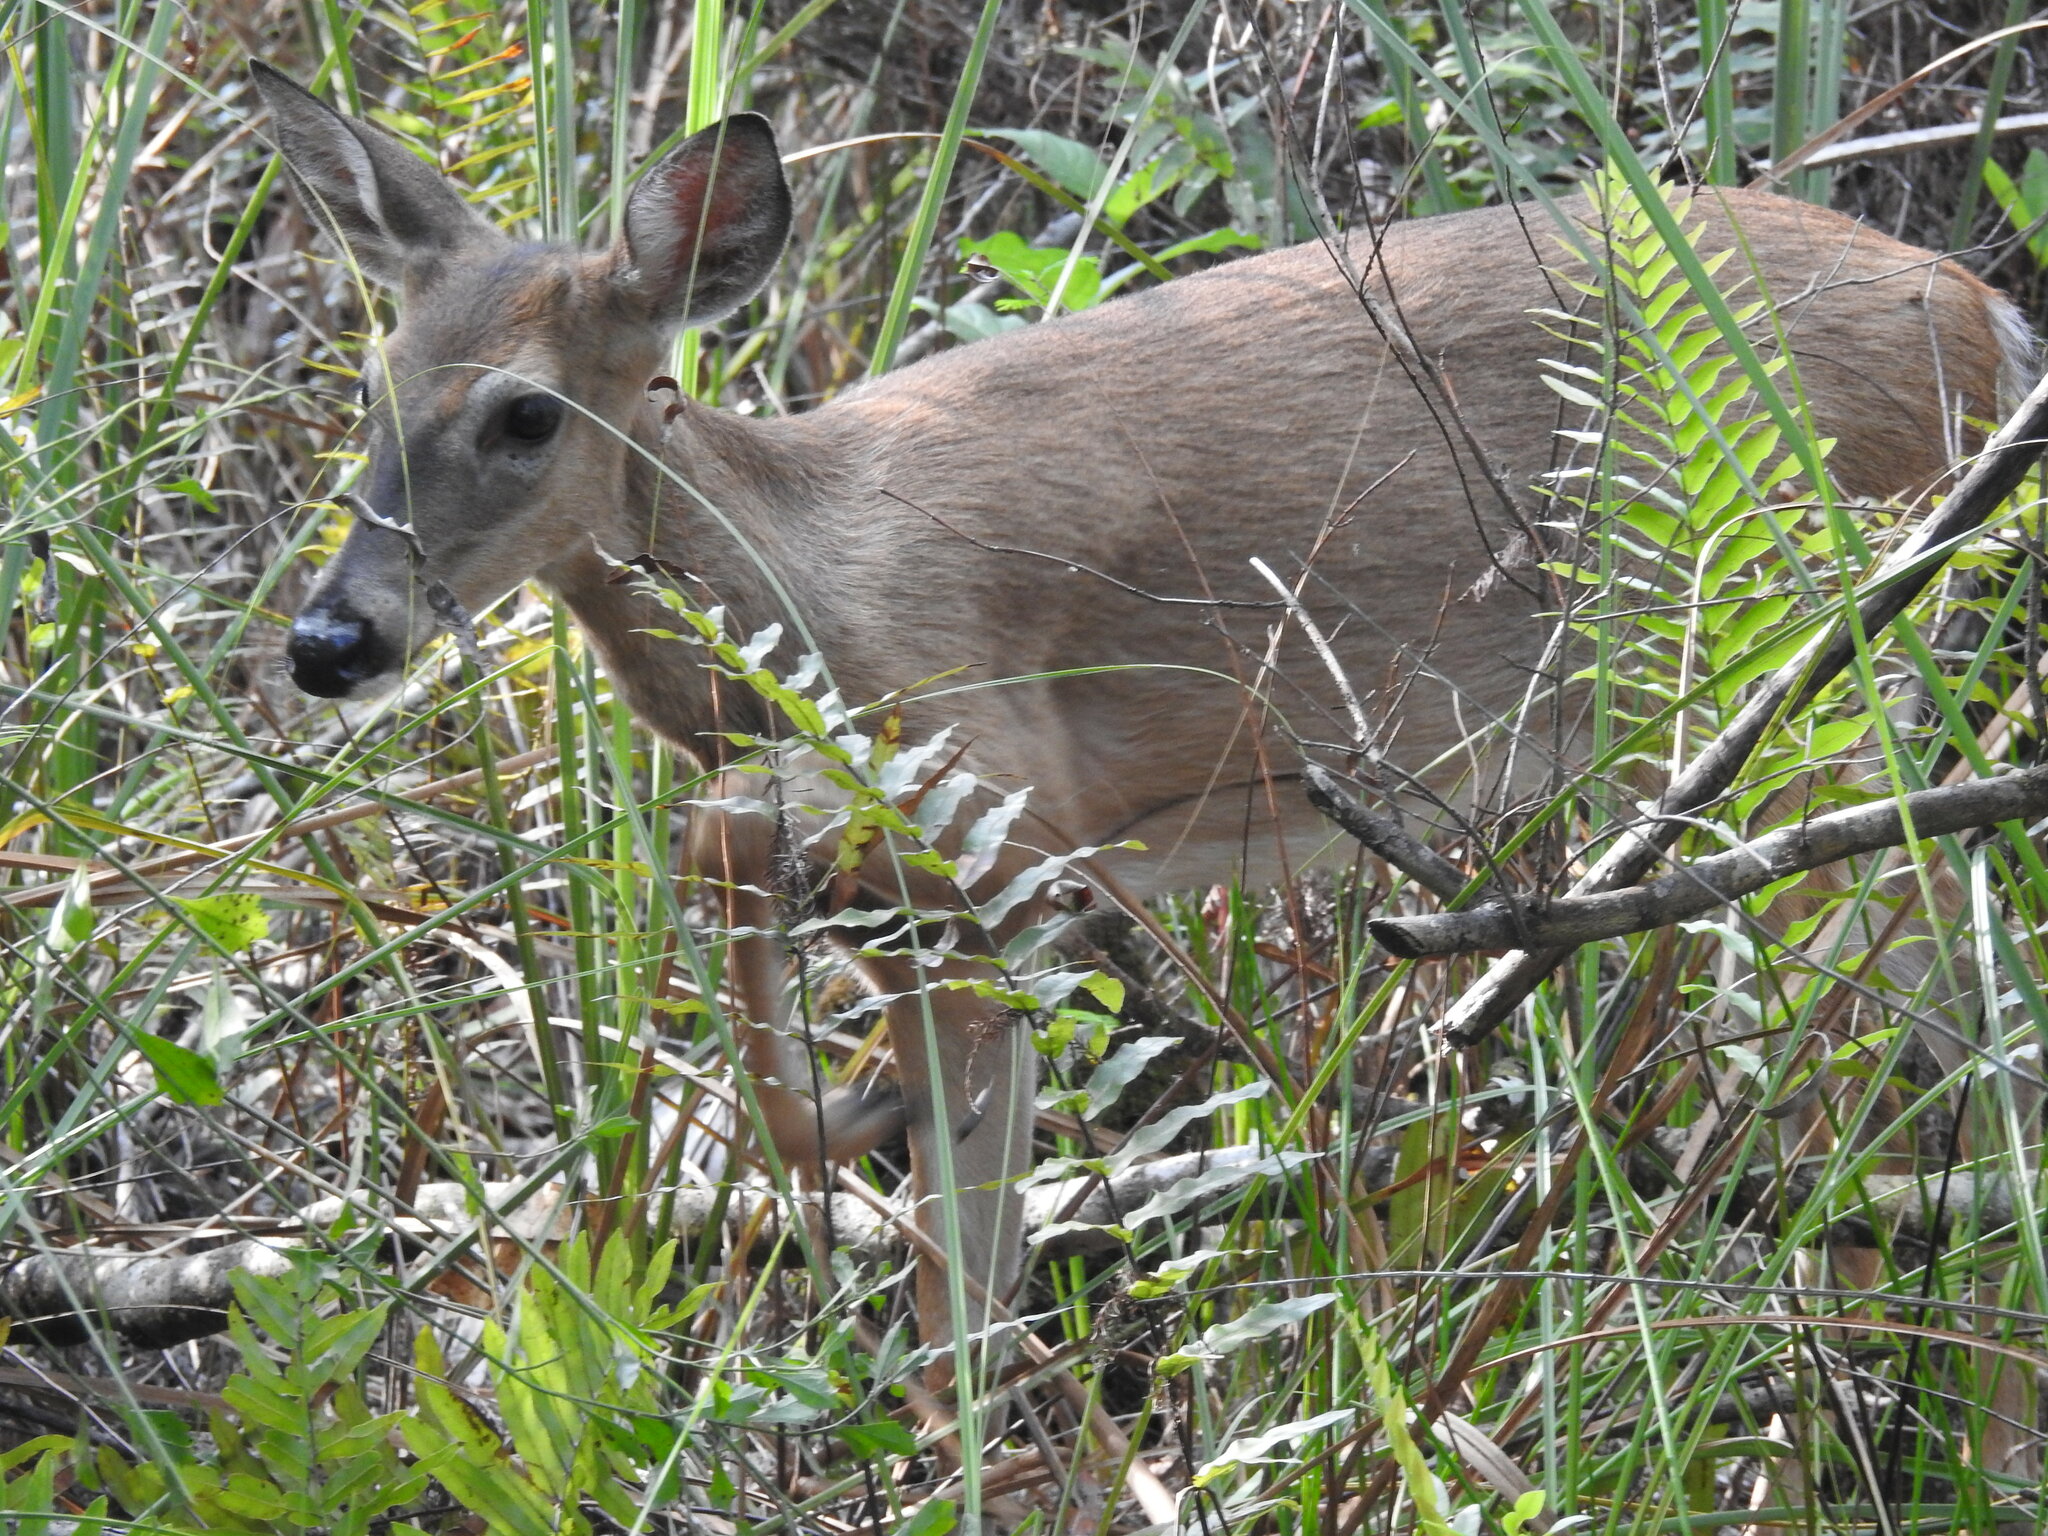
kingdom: Animalia
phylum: Chordata
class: Mammalia
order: Artiodactyla
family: Cervidae
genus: Odocoileus
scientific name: Odocoileus virginianus
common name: White-tailed deer
